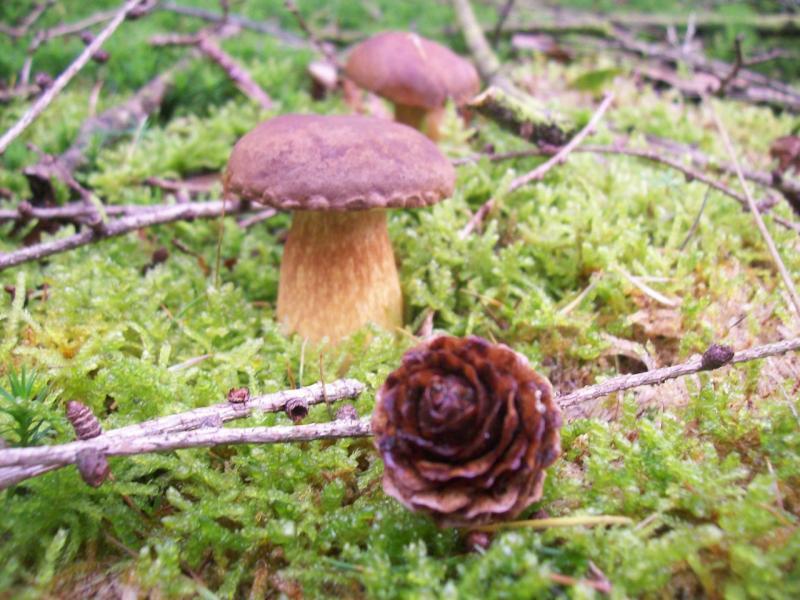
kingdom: Fungi
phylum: Basidiomycota
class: Agaricomycetes
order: Boletales
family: Boletaceae
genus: Imleria
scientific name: Imleria badia
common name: Bay bolete
